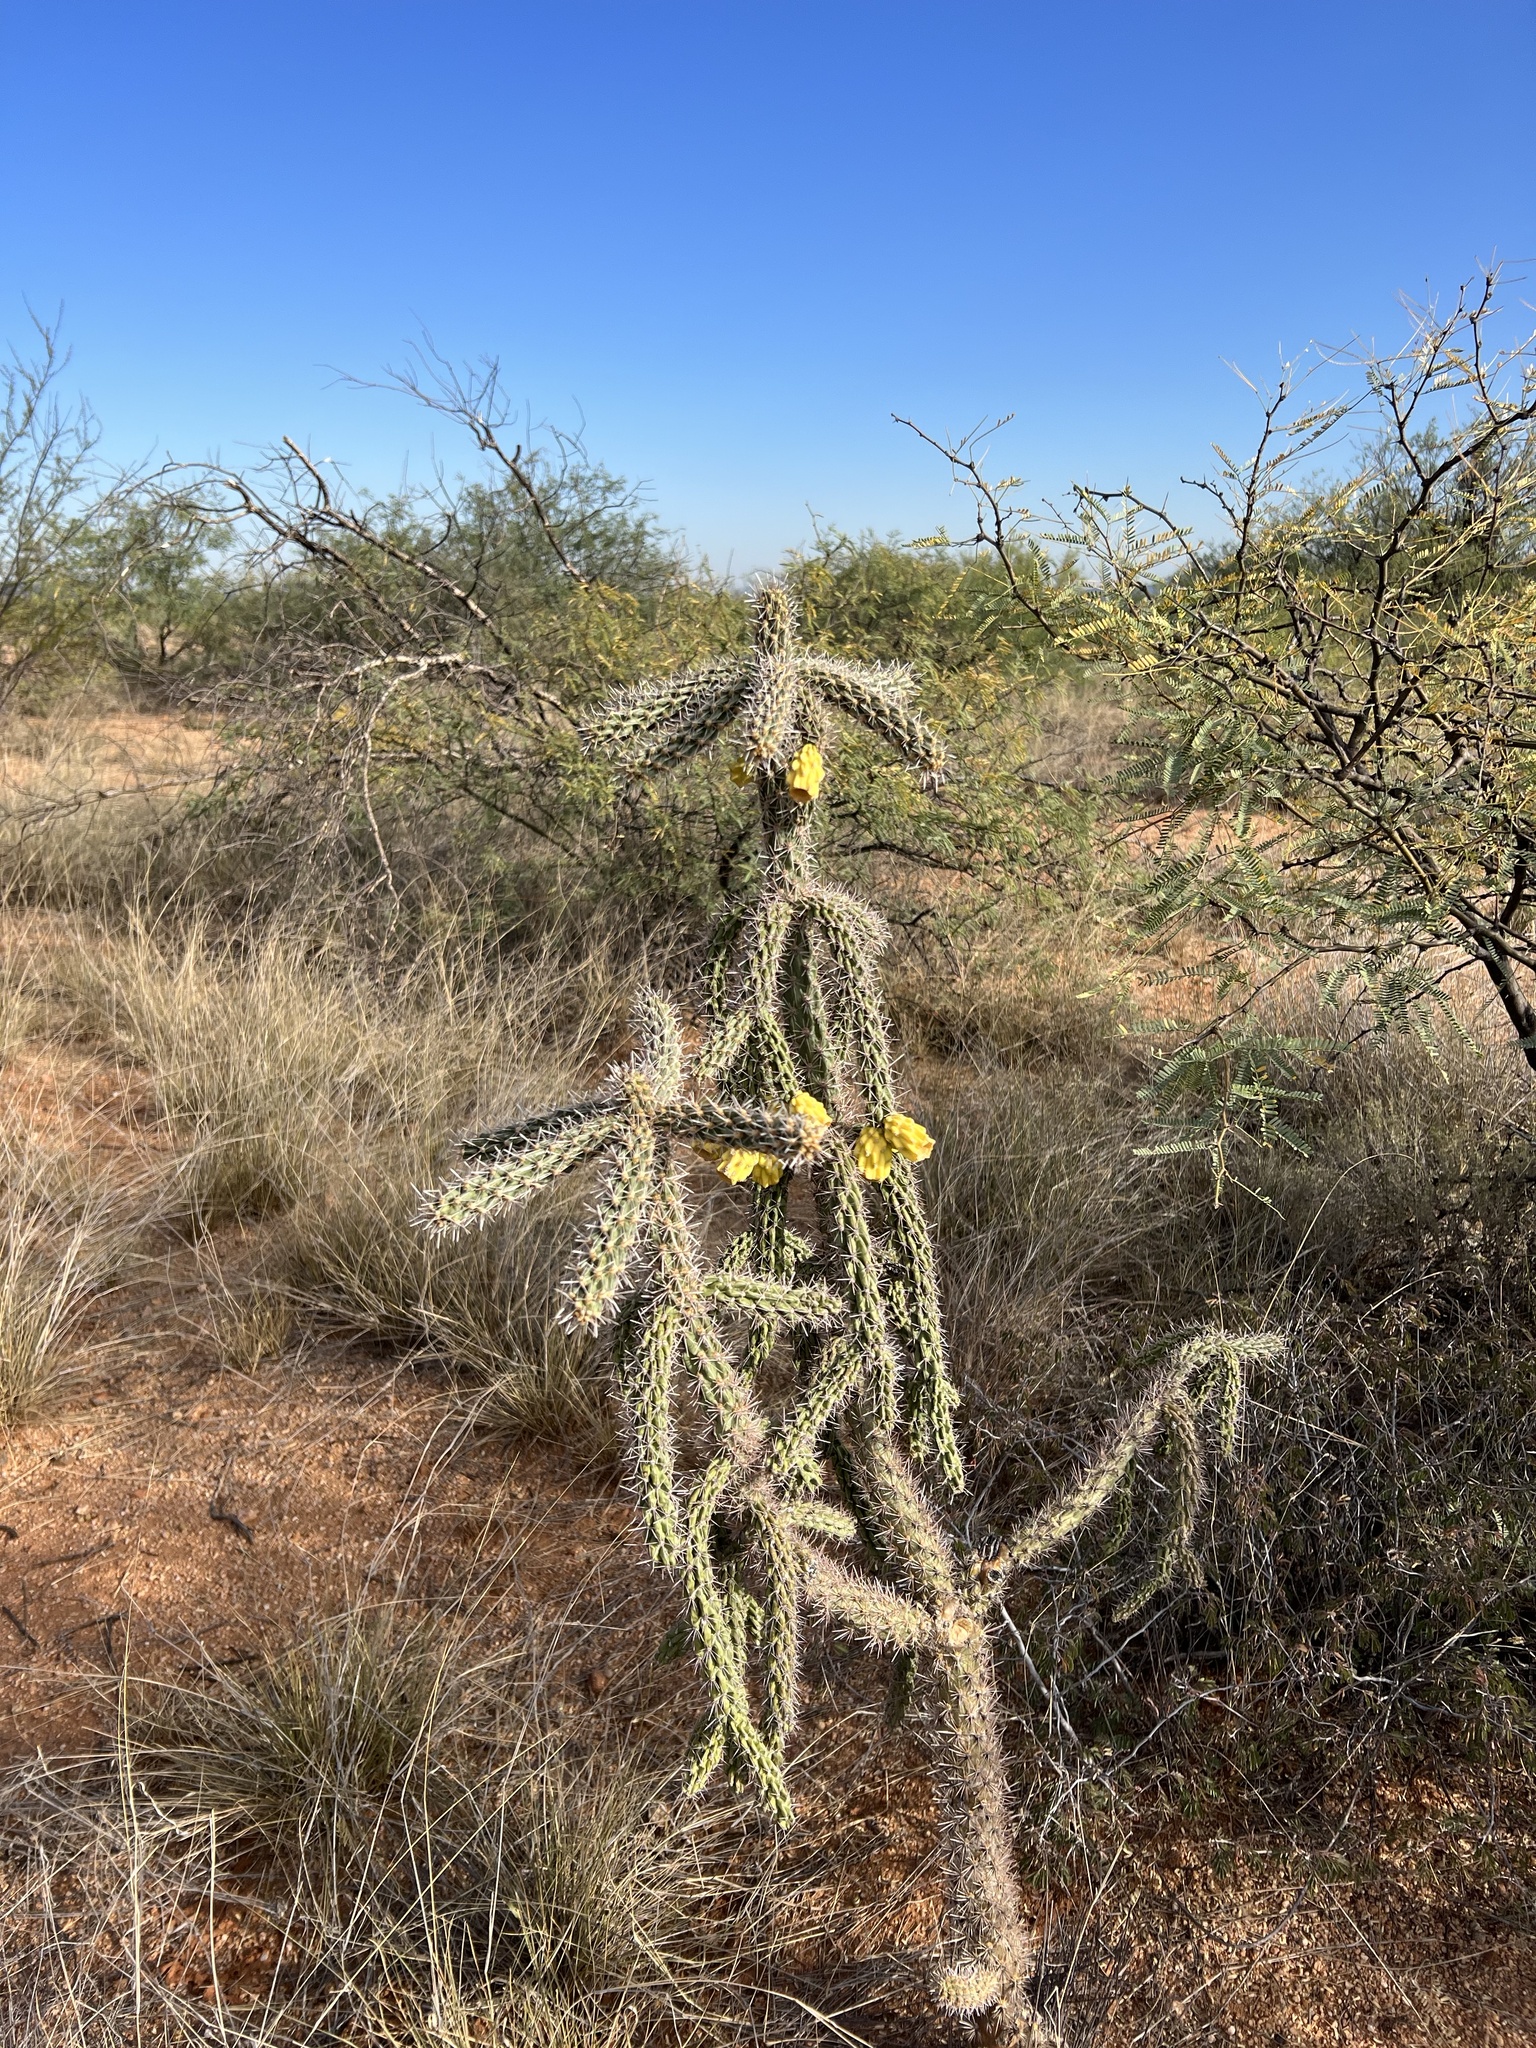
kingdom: Plantae
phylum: Tracheophyta
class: Magnoliopsida
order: Caryophyllales
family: Cactaceae
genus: Cylindropuntia
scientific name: Cylindropuntia imbricata
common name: Candelabrum cactus
